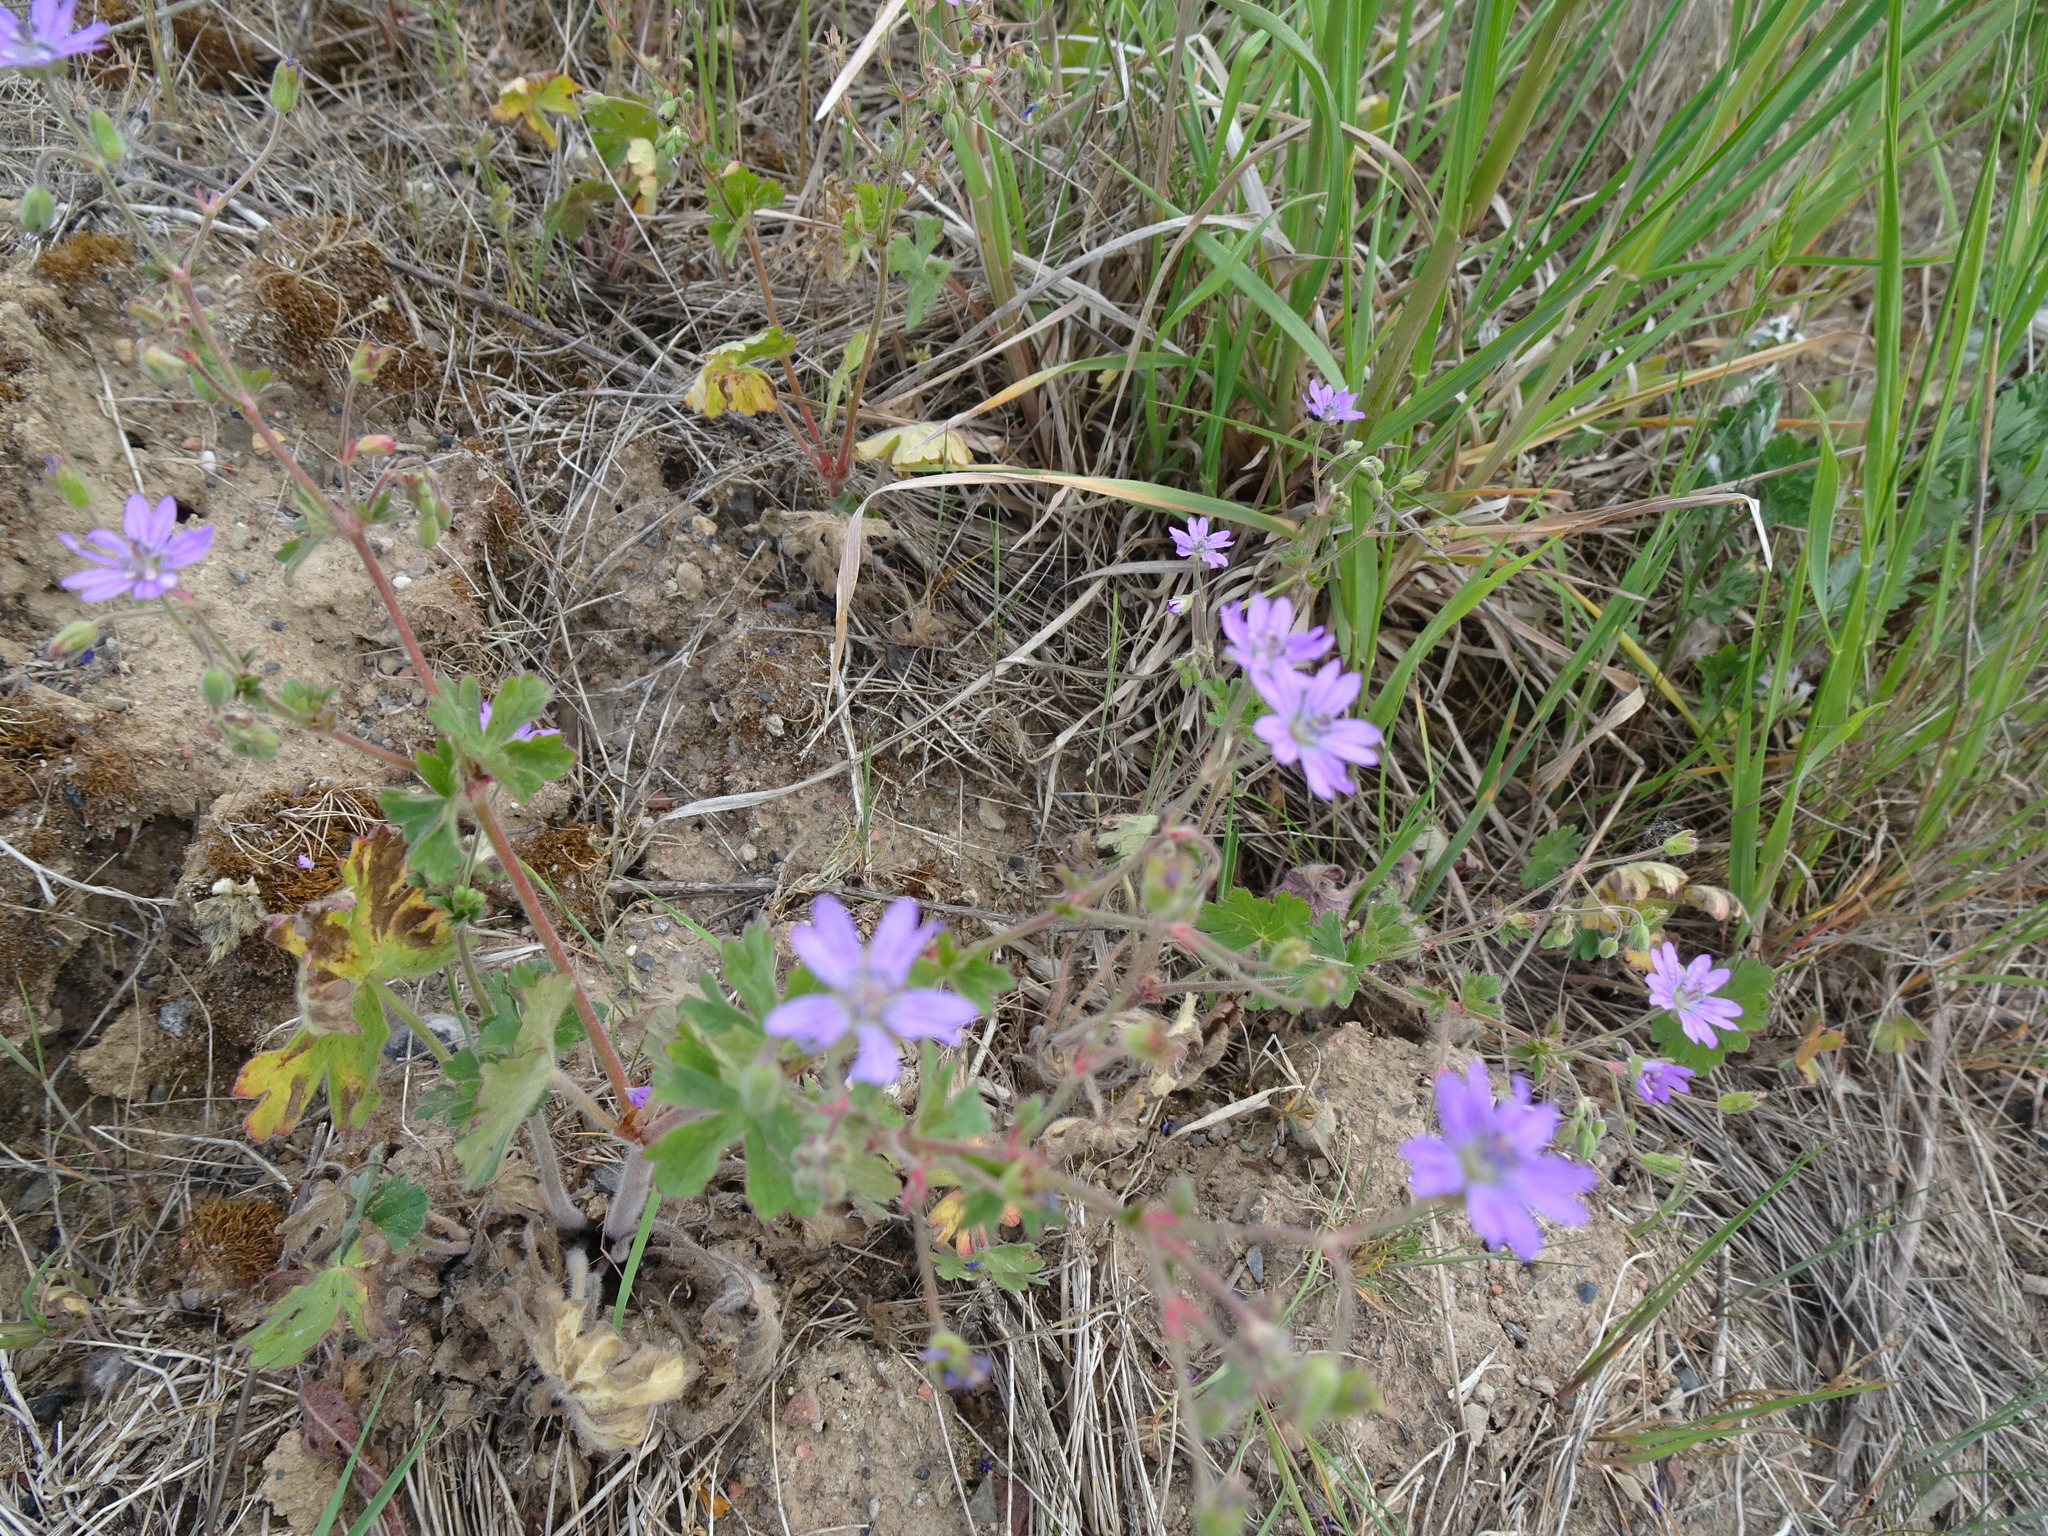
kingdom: Plantae
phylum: Tracheophyta
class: Magnoliopsida
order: Geraniales
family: Geraniaceae
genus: Geranium
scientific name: Geranium pyrenaicum
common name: Hedgerow crane's-bill
